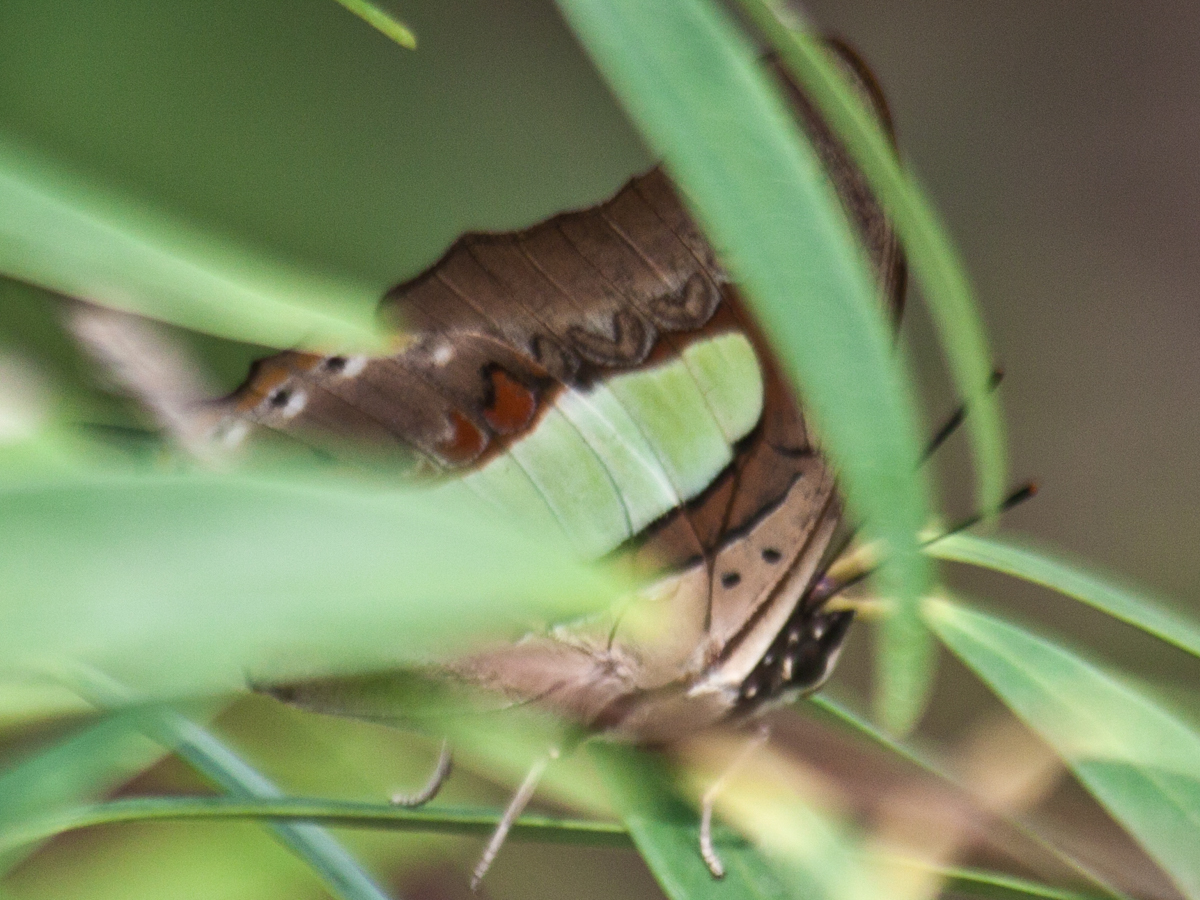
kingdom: Animalia
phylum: Arthropoda
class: Insecta
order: Lepidoptera
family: Nymphalidae
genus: Polyura
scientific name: Polyura athamas
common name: Common nawab
